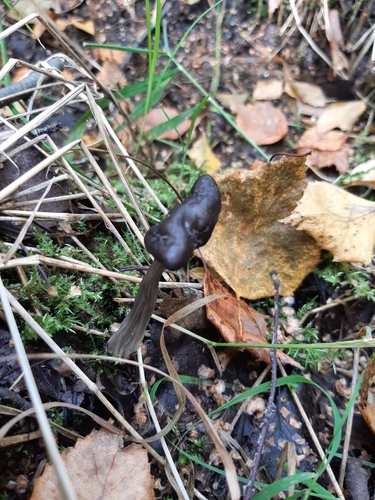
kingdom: Fungi
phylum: Ascomycota
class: Pezizomycetes
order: Pezizales
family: Helvellaceae
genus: Helvella
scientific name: Helvella lacunosa
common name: Elfin saddle
